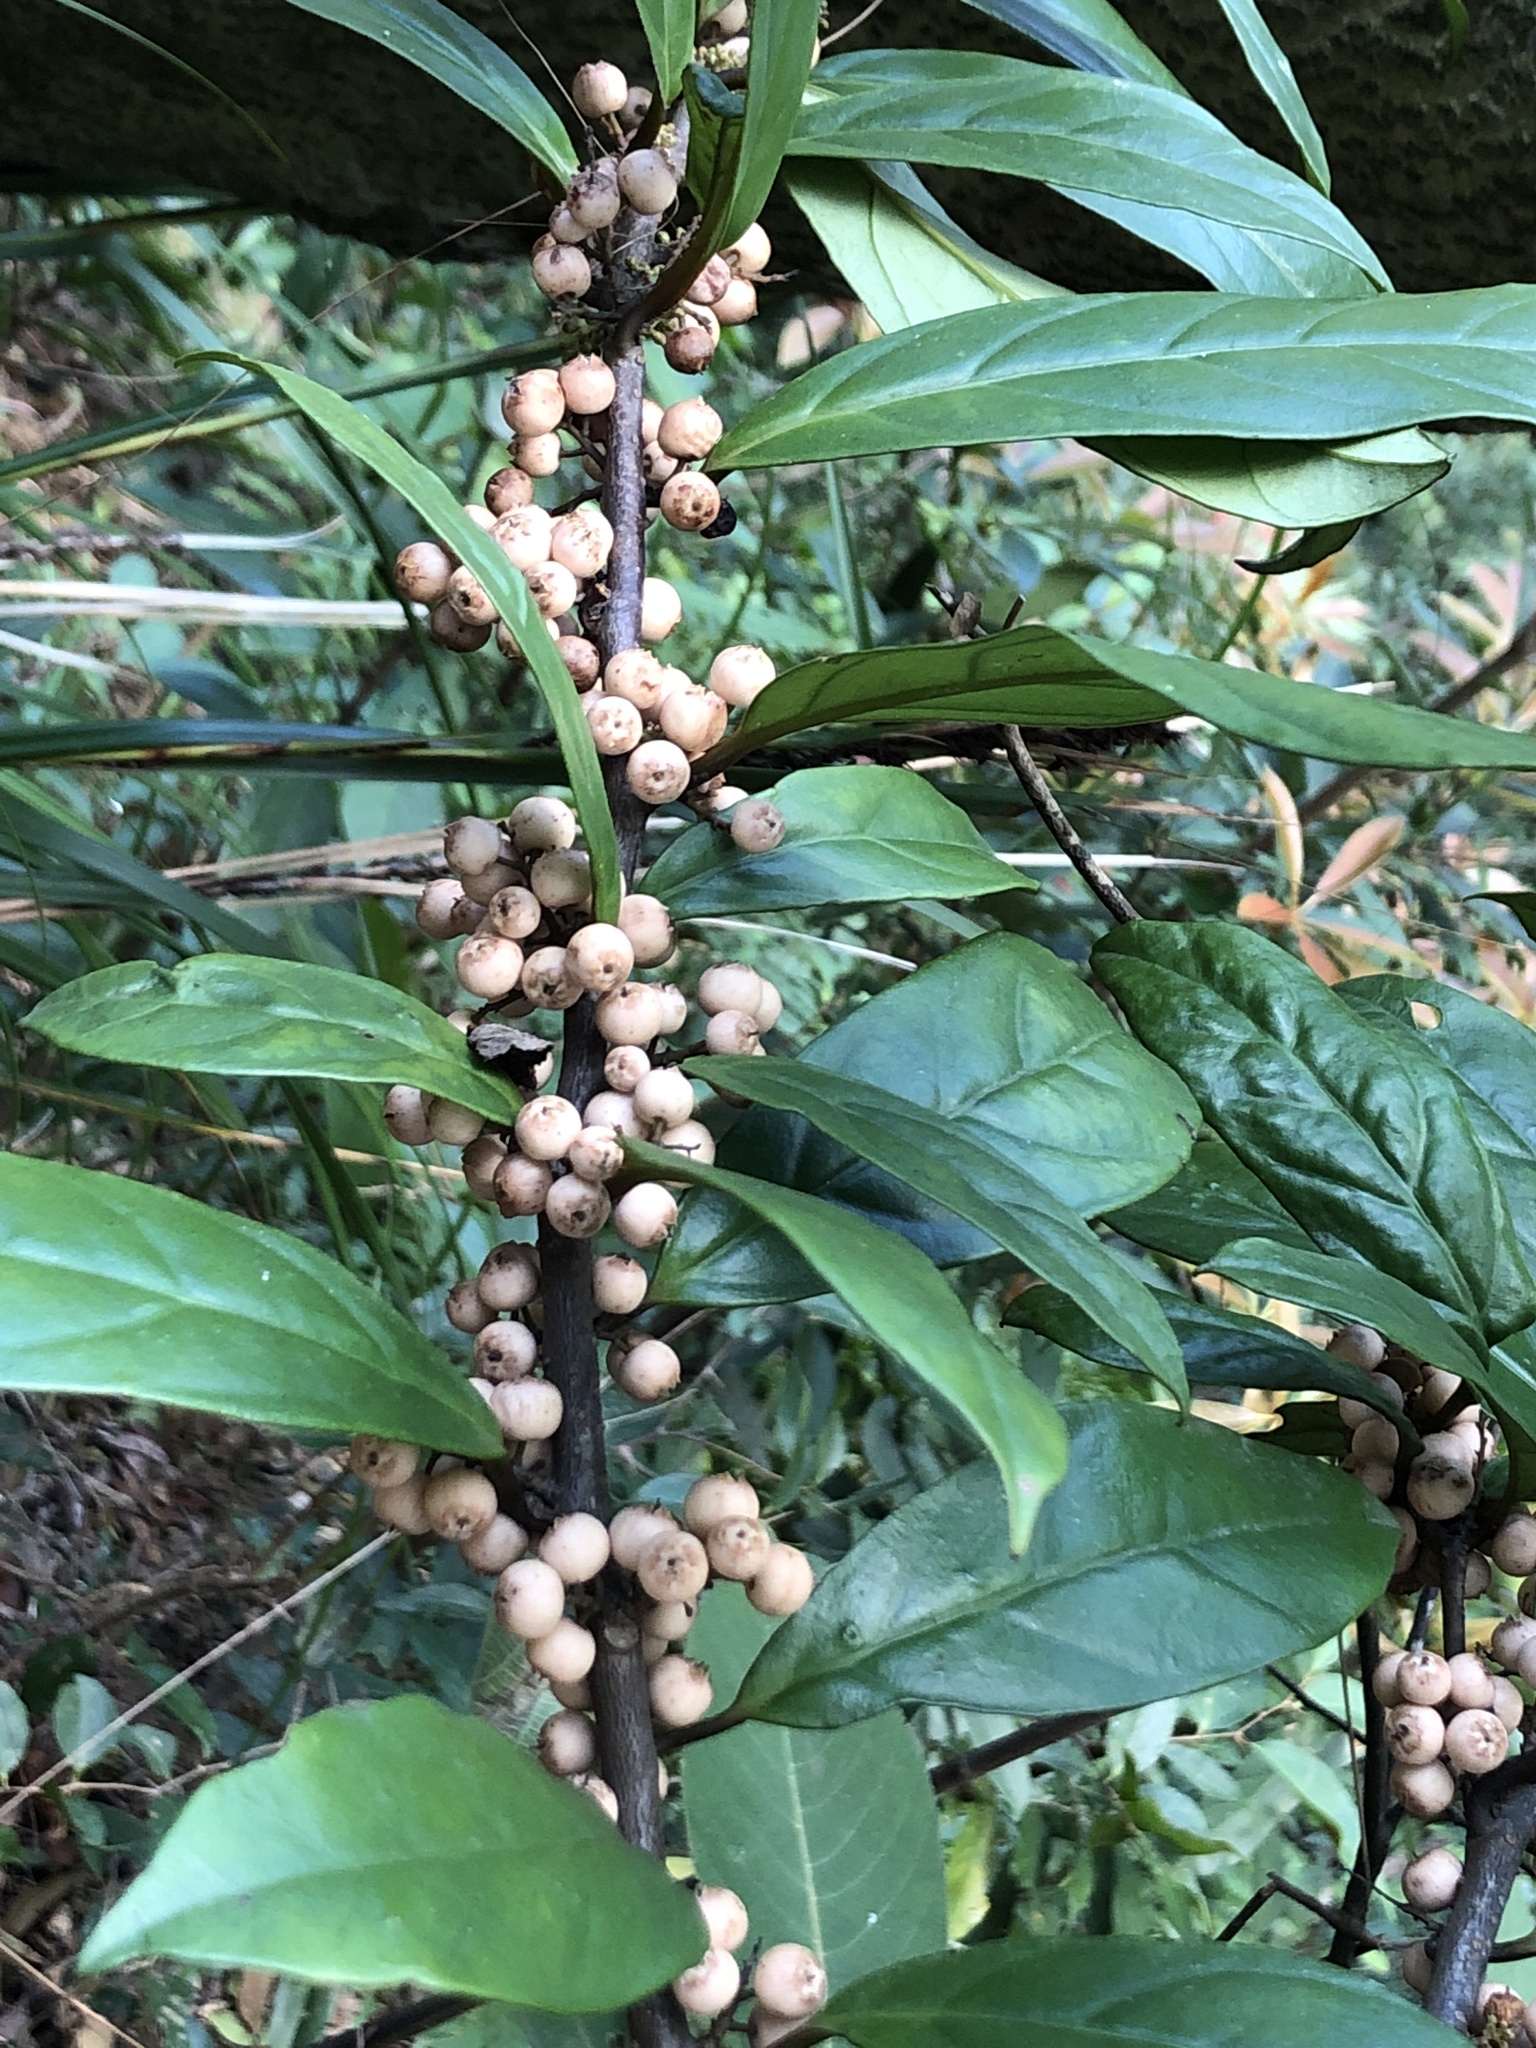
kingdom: Plantae
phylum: Tracheophyta
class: Magnoliopsida
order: Ericales
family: Primulaceae
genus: Maesa
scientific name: Maesa japonica
